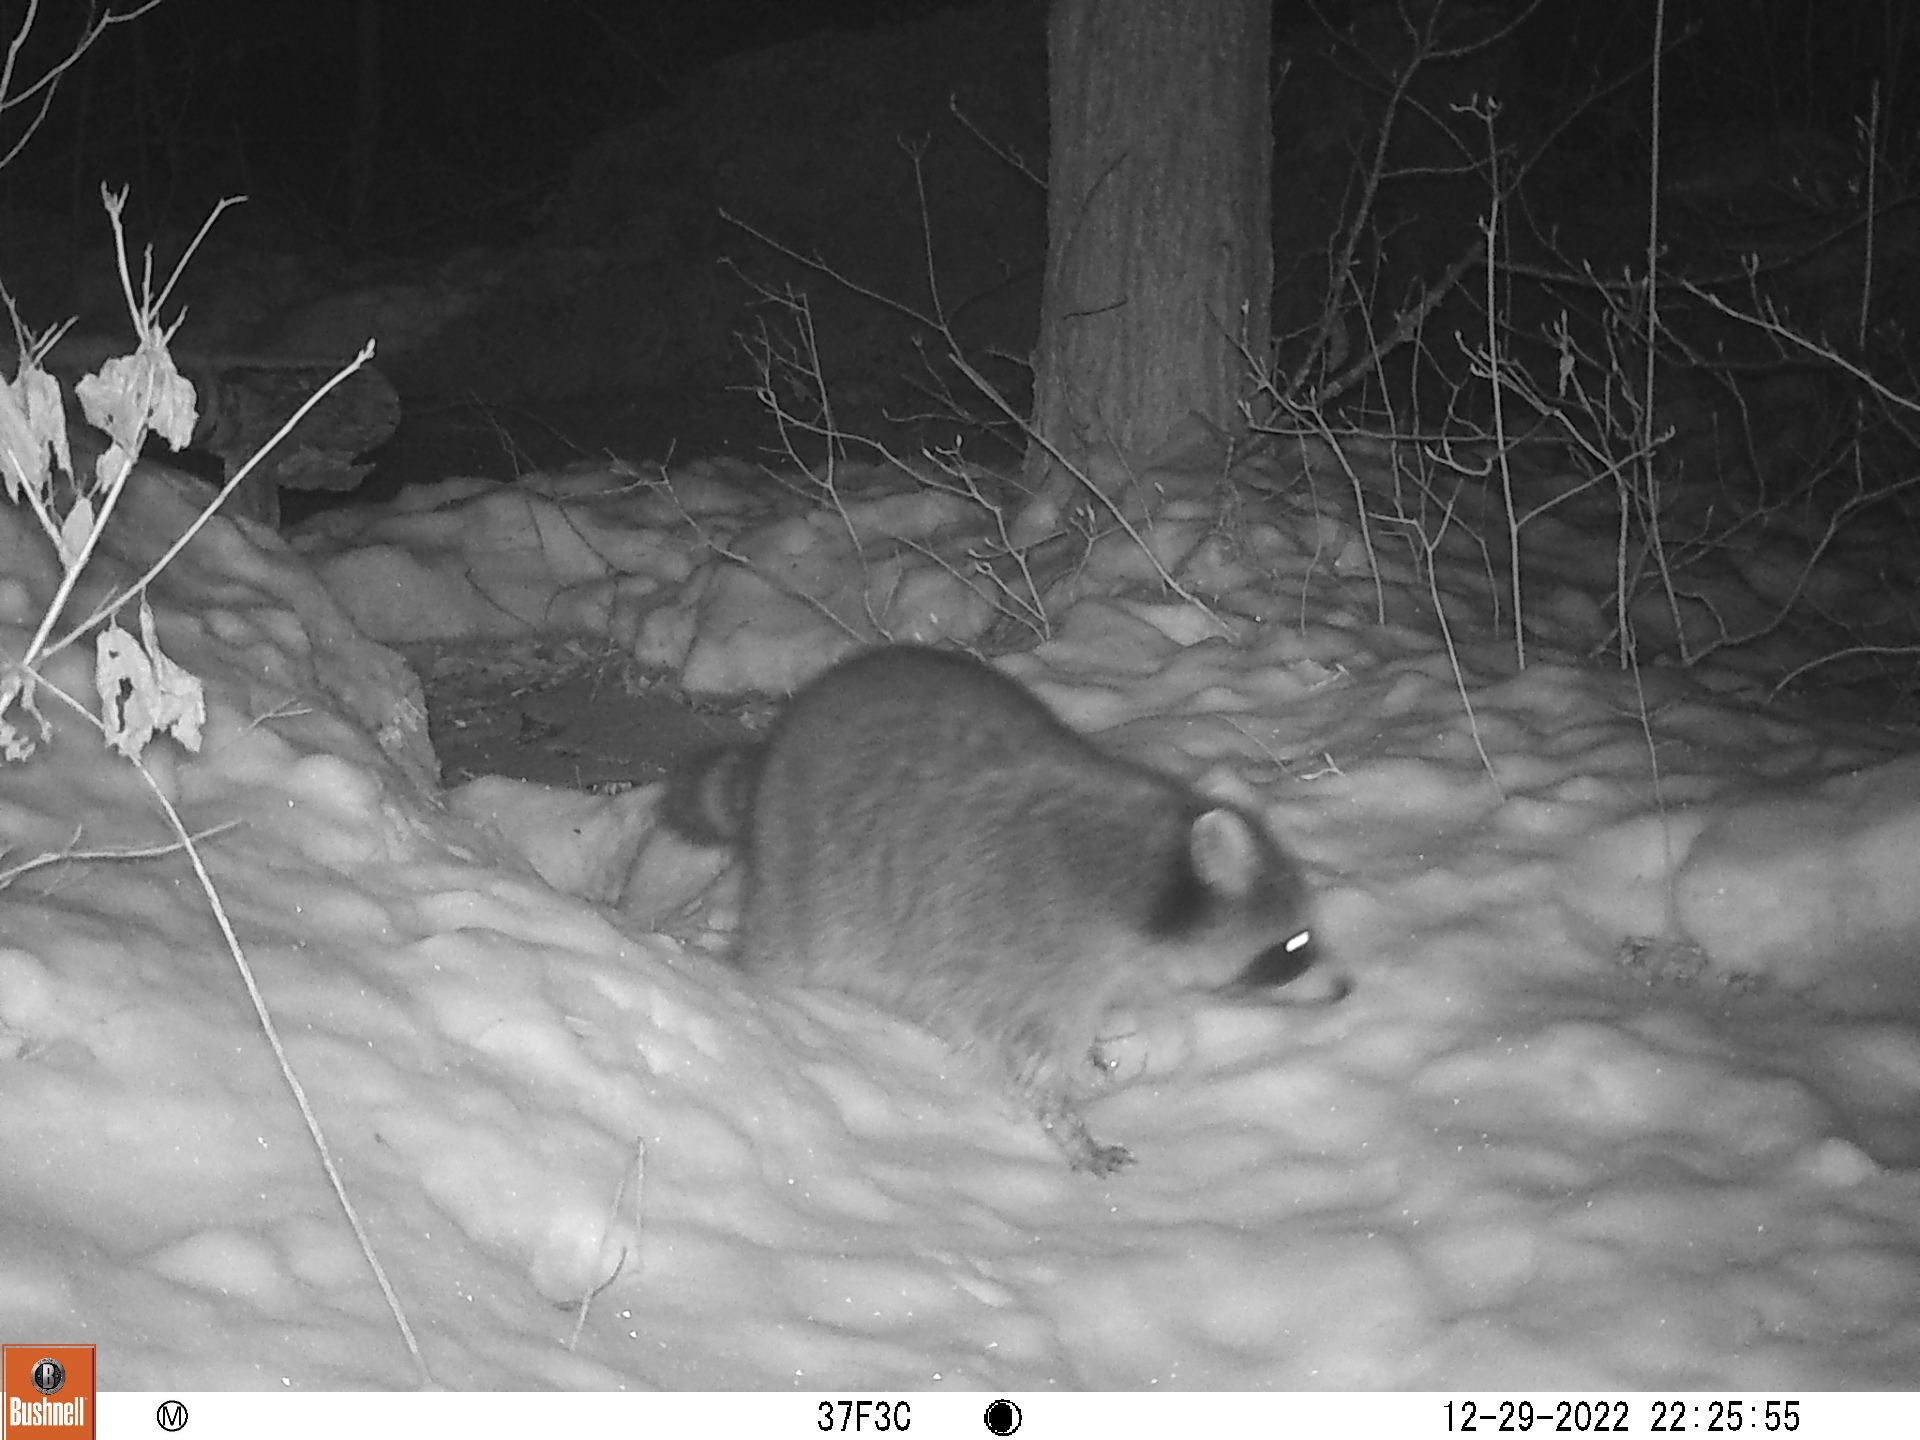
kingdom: Animalia
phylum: Chordata
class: Mammalia
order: Carnivora
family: Procyonidae
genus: Procyon
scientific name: Procyon lotor
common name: Raccoon
